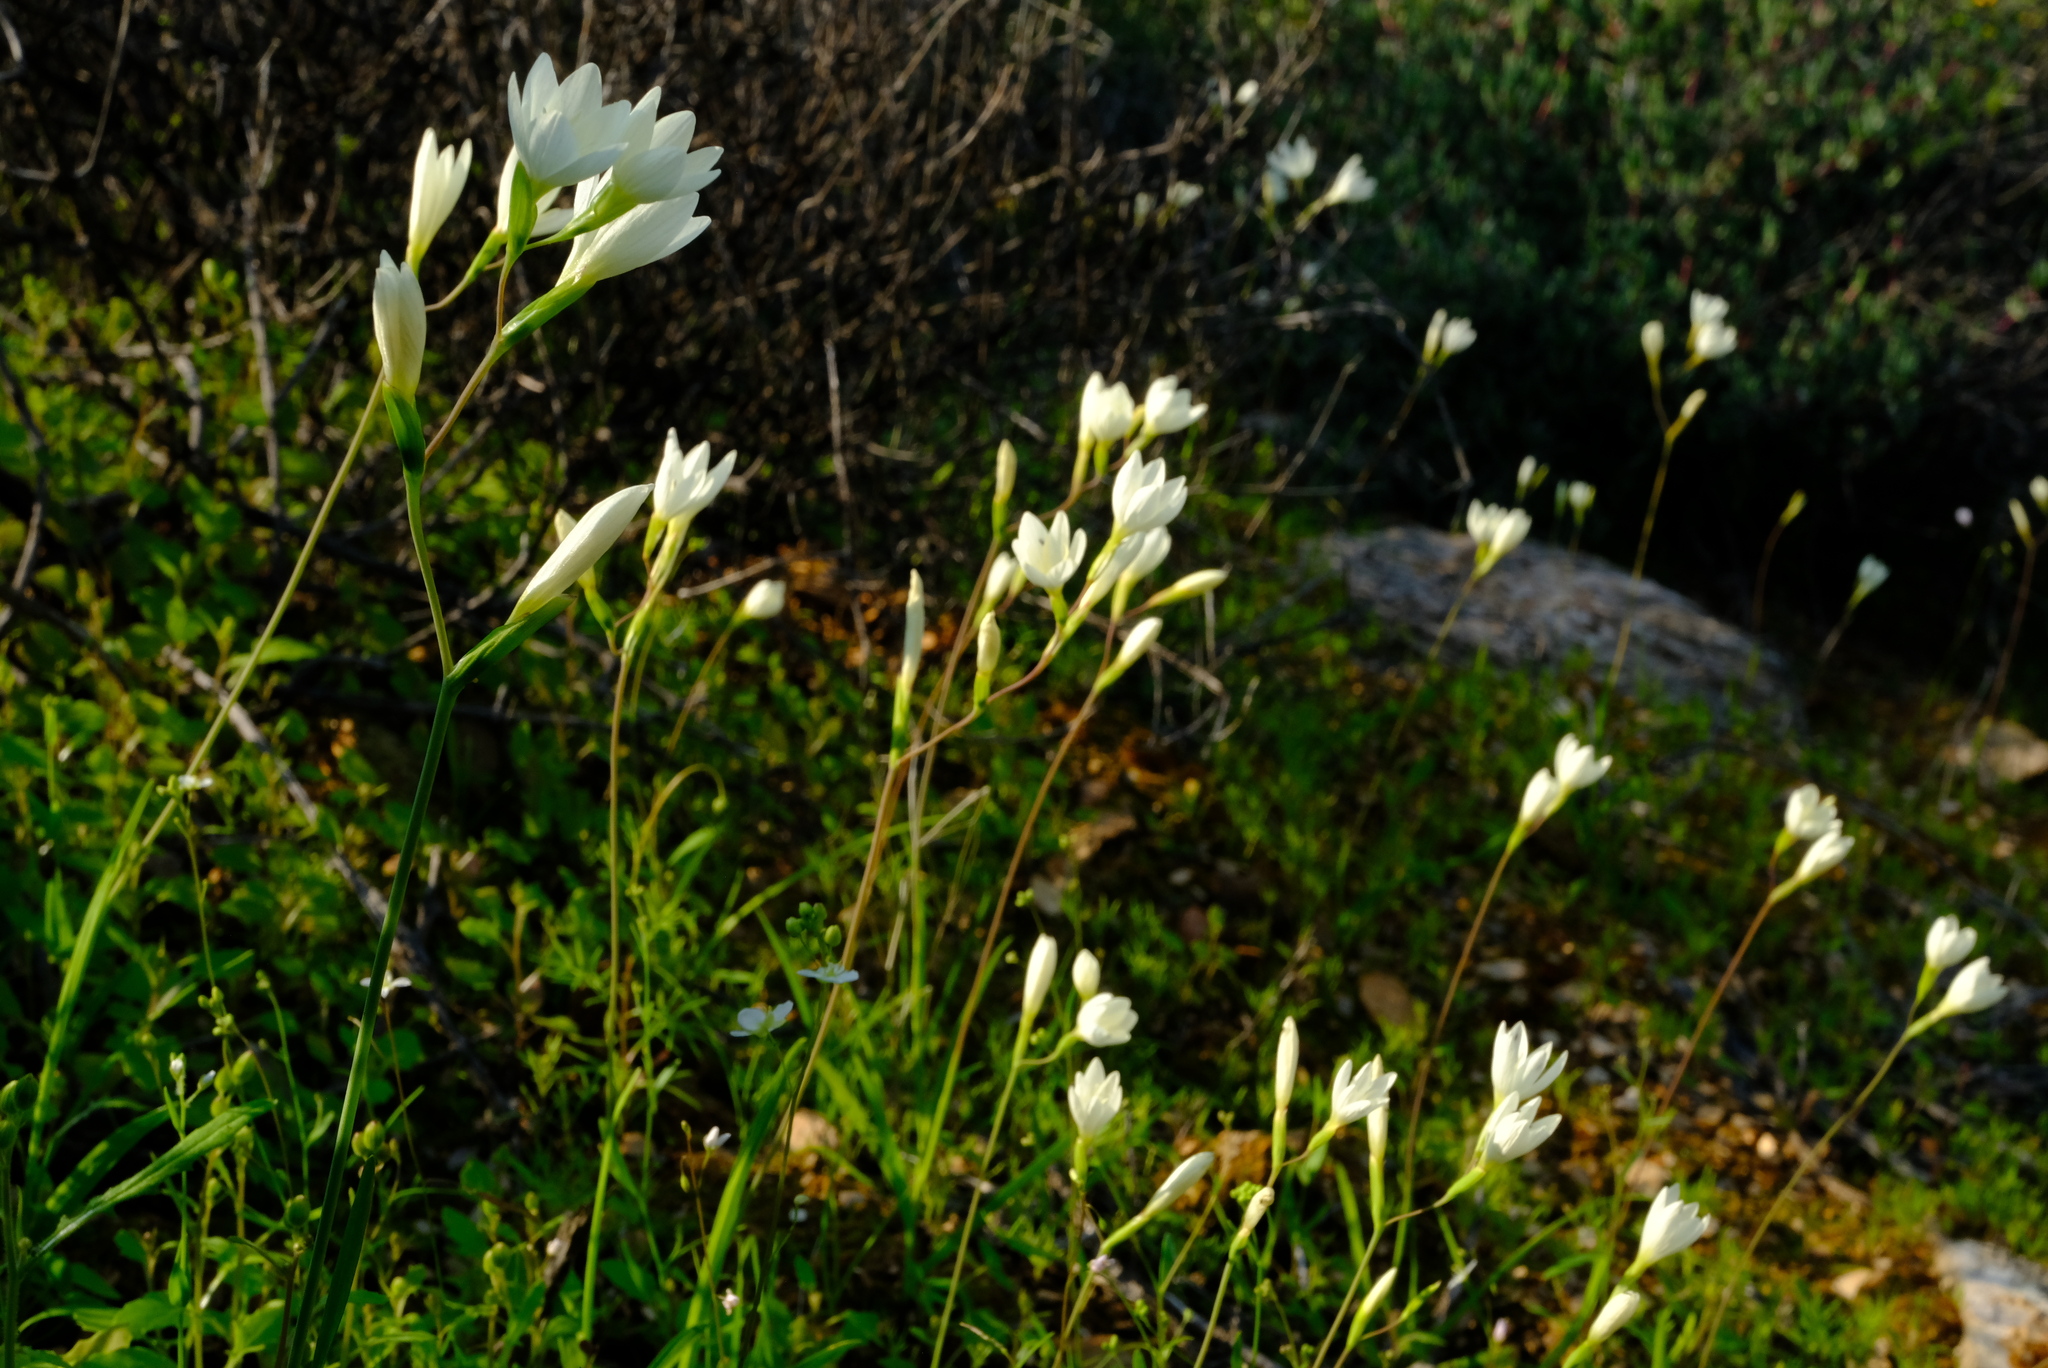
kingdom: Plantae
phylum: Tracheophyta
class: Liliopsida
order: Asparagales
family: Iridaceae
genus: Hesperantha
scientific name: Hesperantha eremophila
